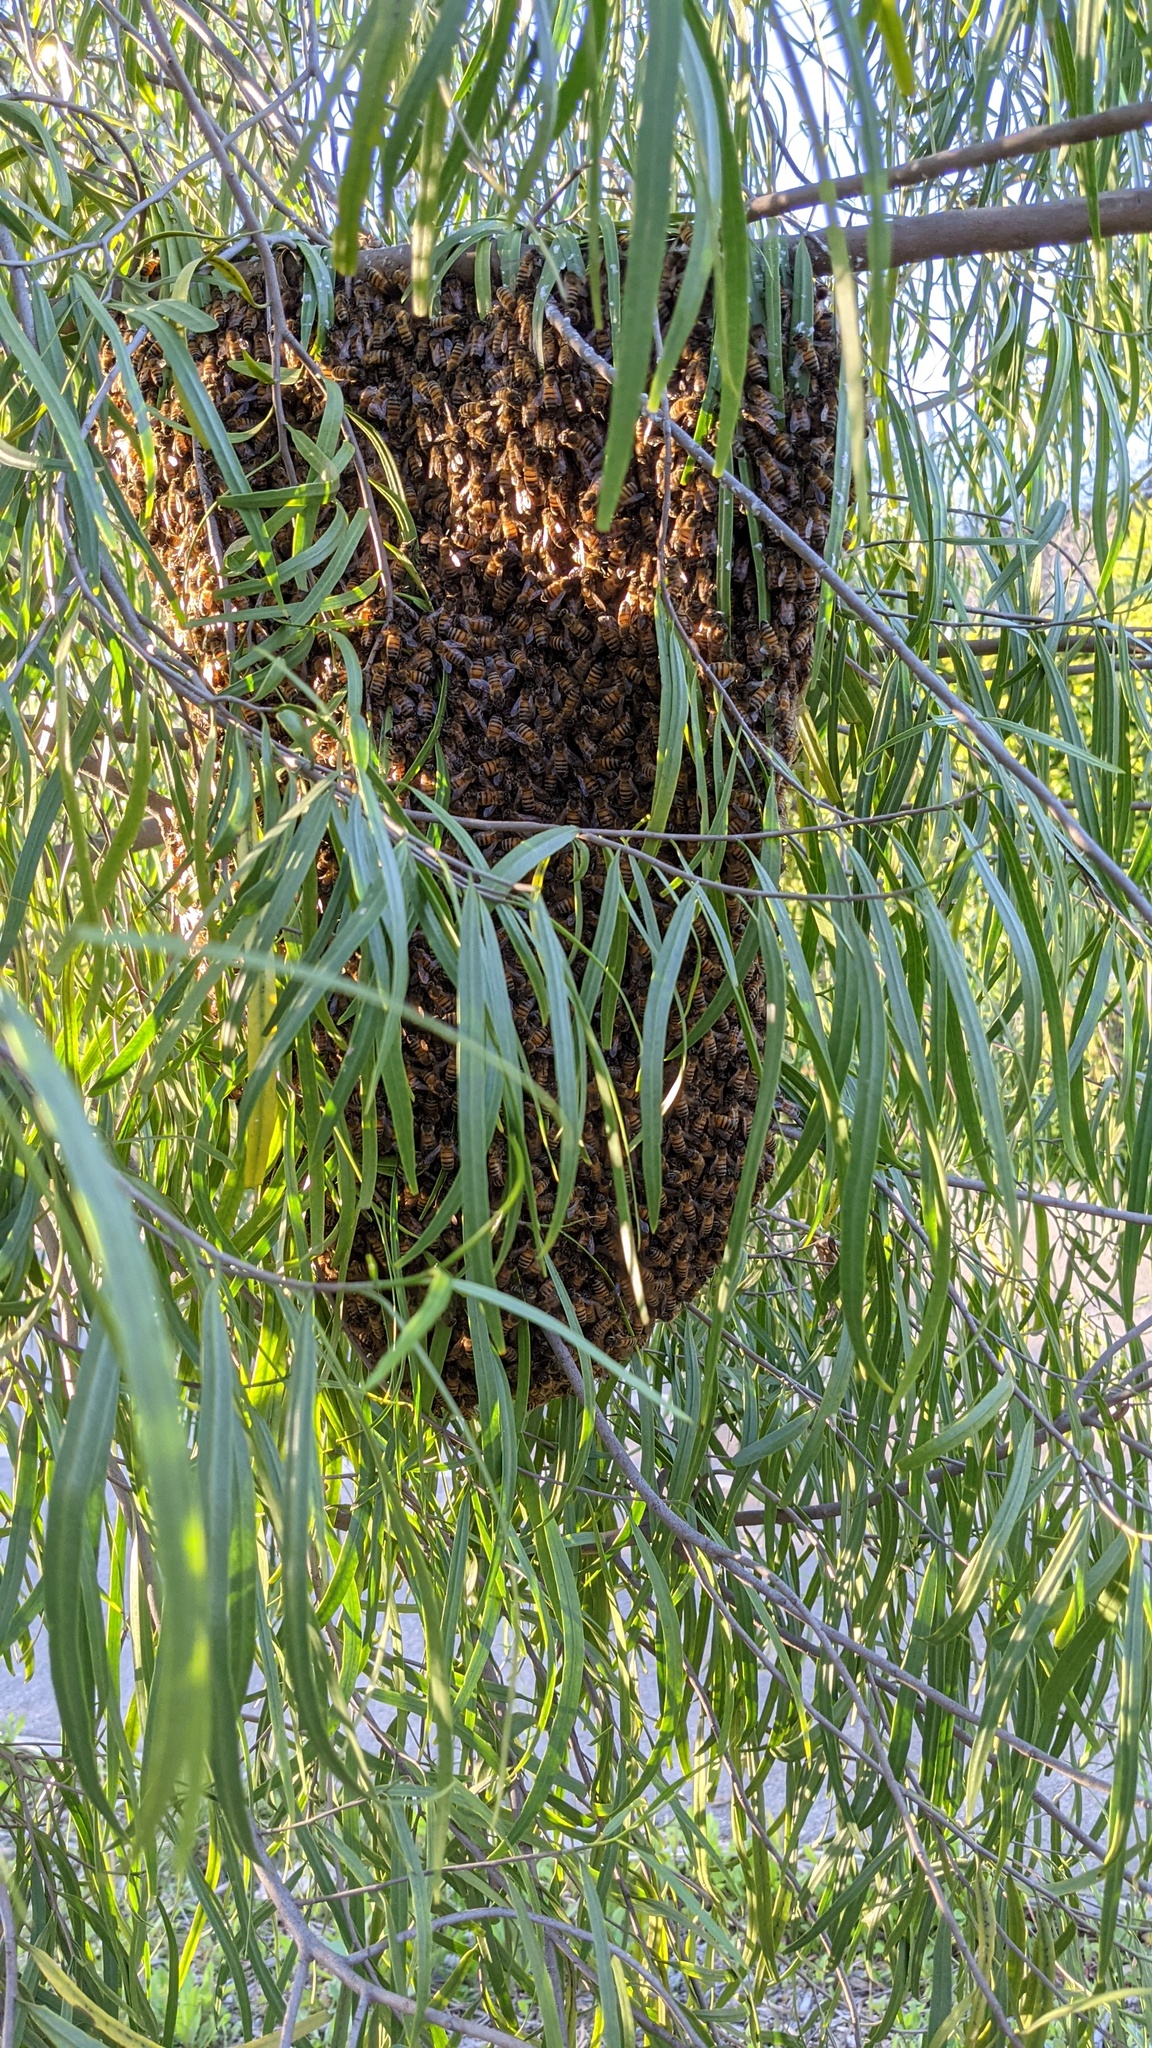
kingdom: Animalia
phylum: Arthropoda
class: Insecta
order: Hymenoptera
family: Apidae
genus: Apis
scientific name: Apis mellifera
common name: Honey bee
